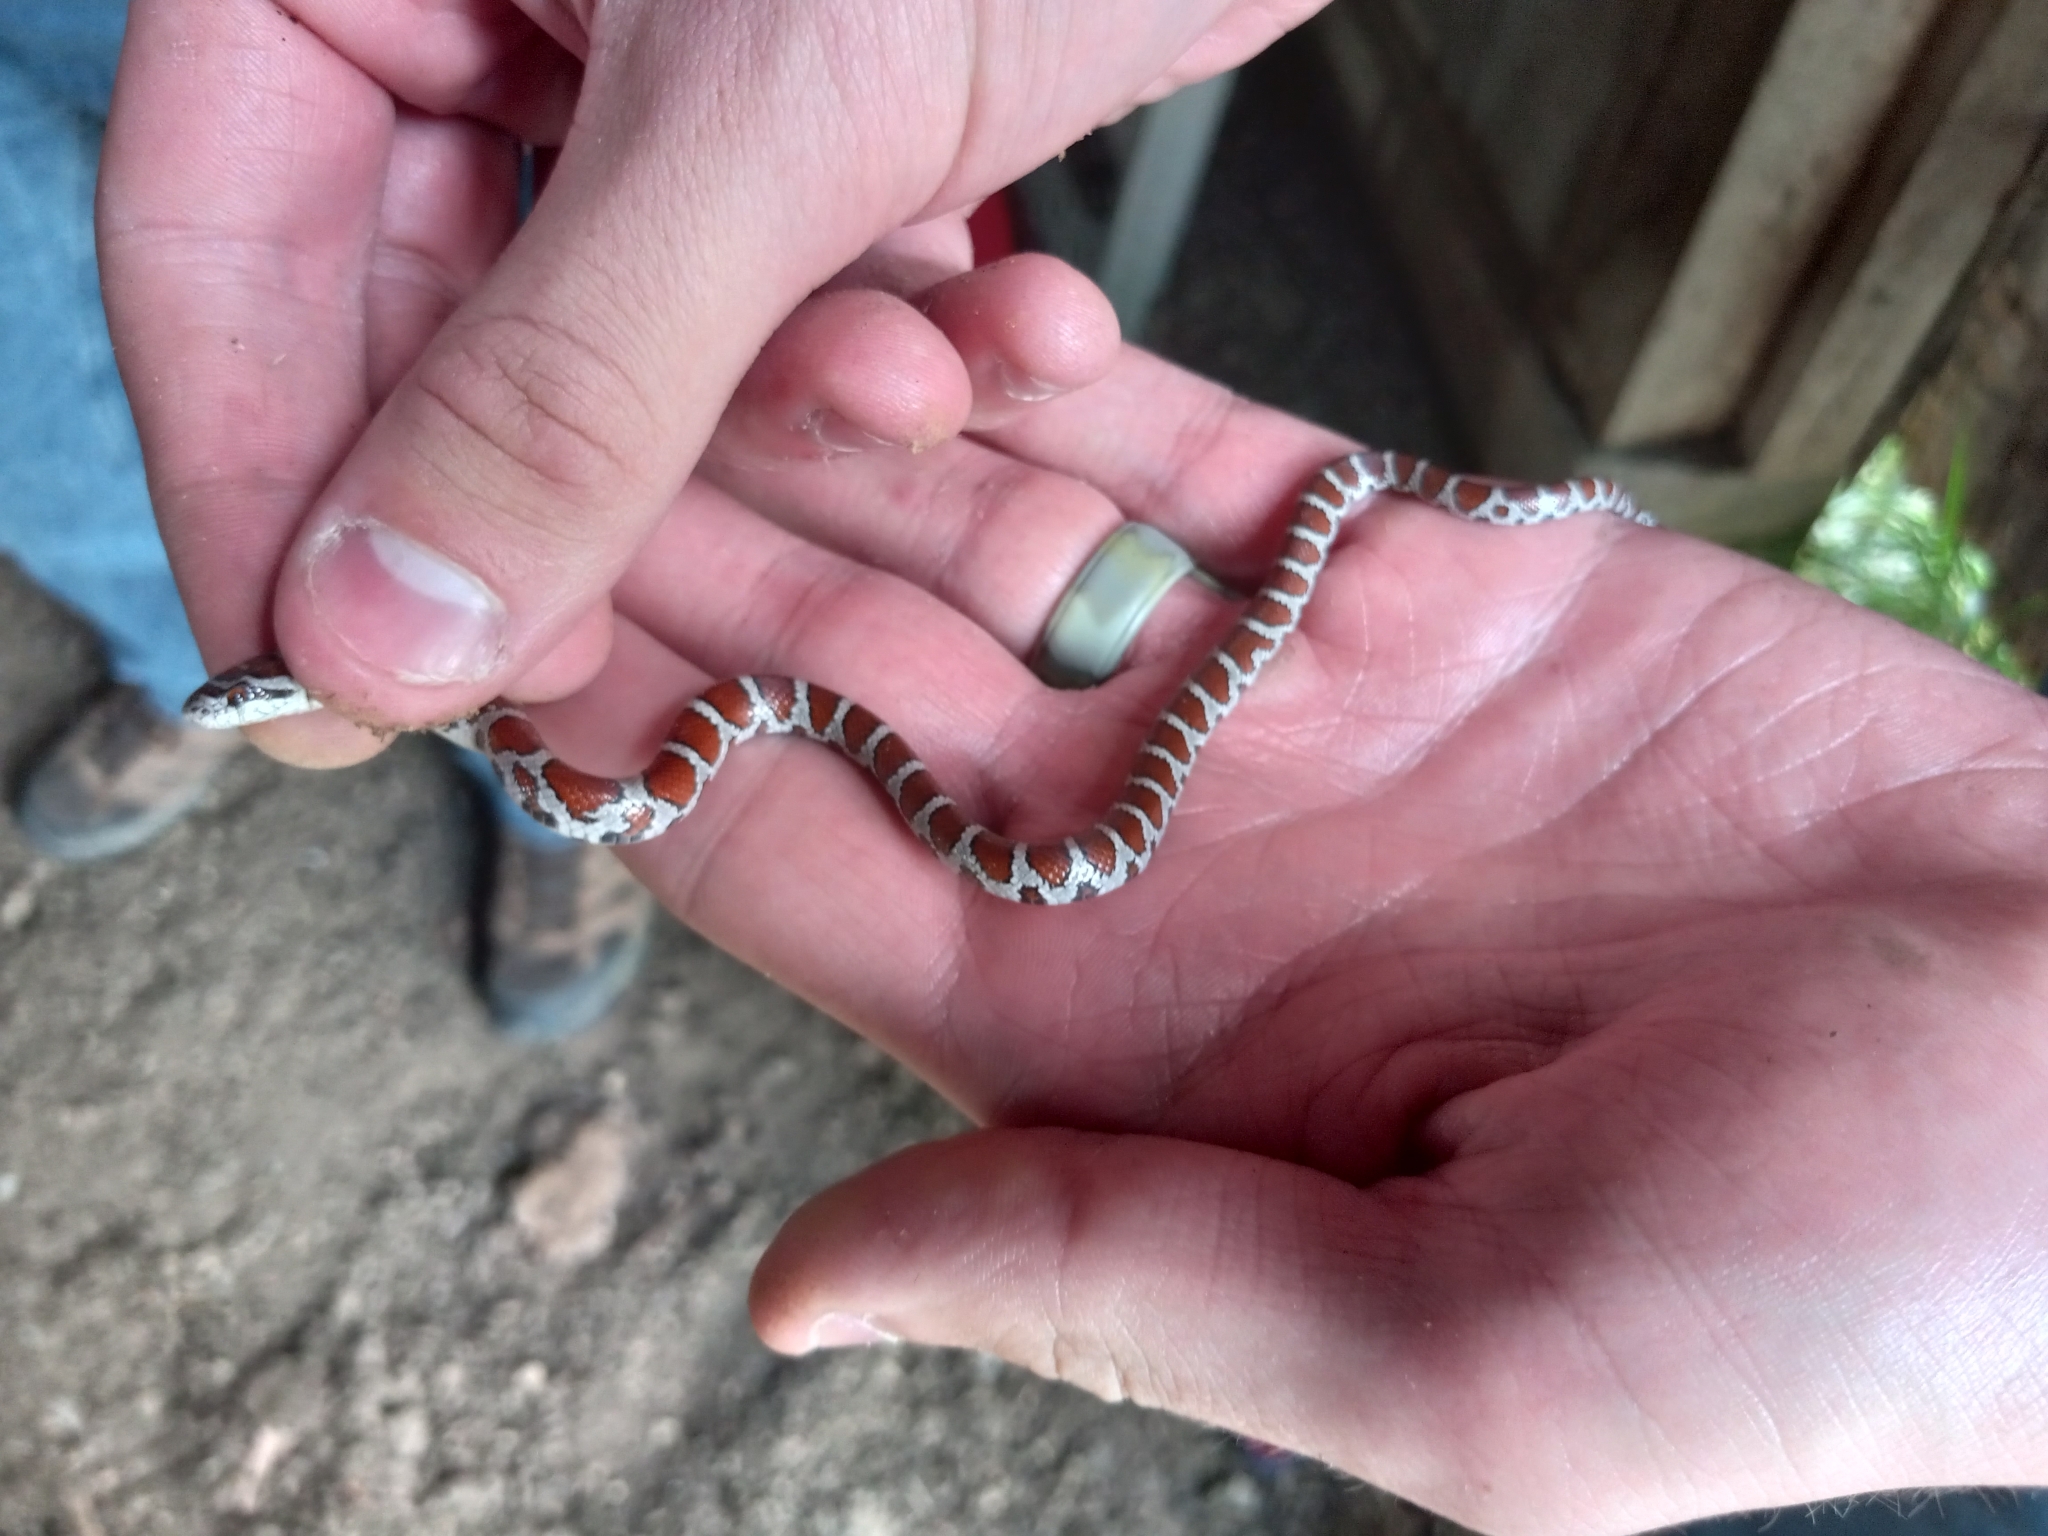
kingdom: Animalia
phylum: Chordata
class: Squamata
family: Colubridae
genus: Lampropeltis
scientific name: Lampropeltis triangulum
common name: Eastern milksnake
